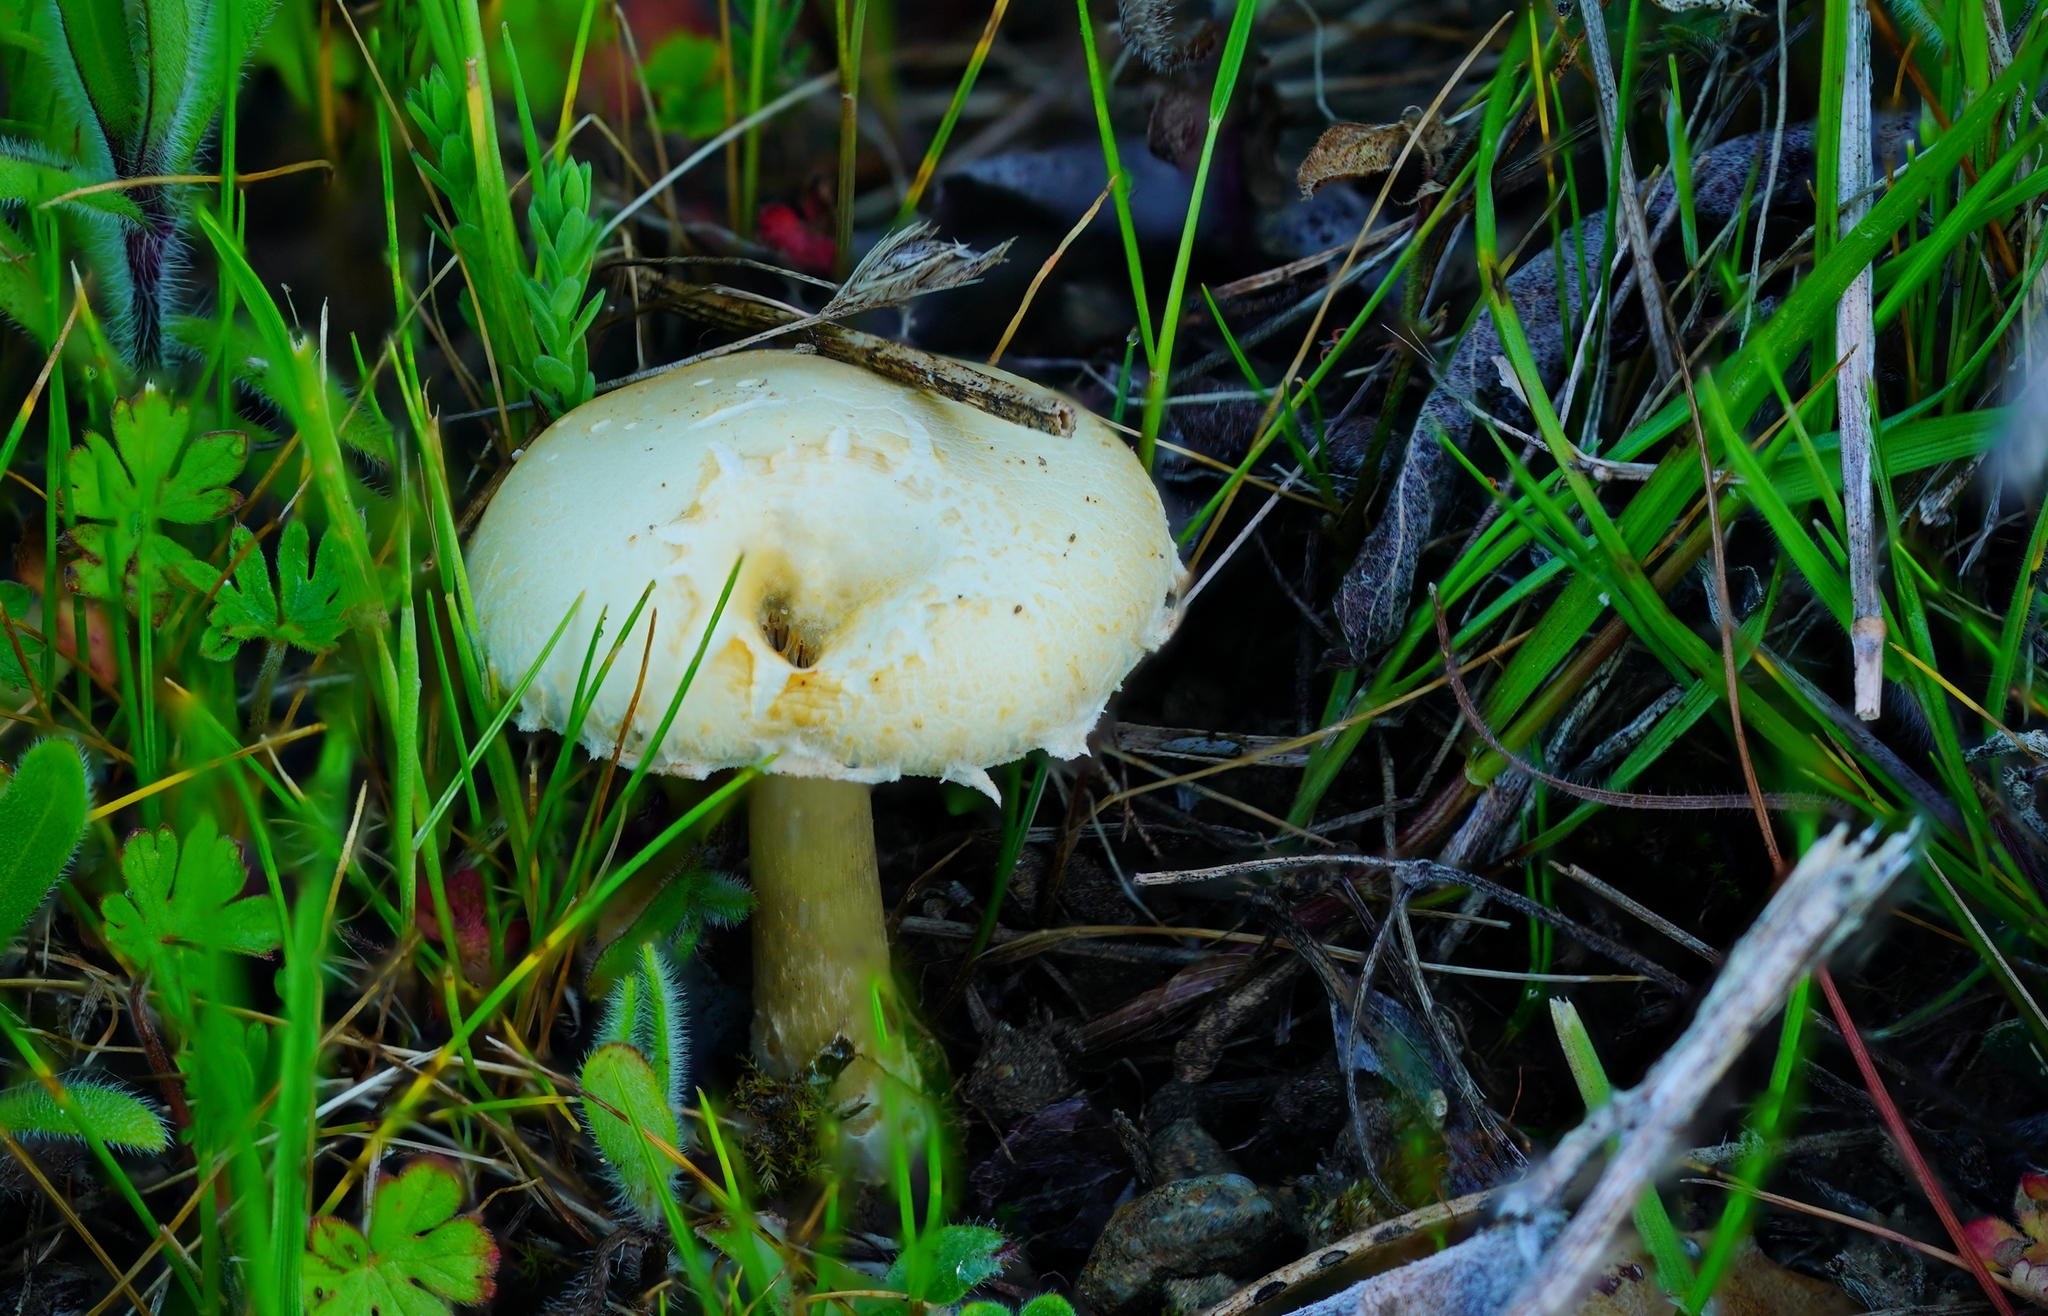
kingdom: Fungi
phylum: Basidiomycota
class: Agaricomycetes
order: Agaricales
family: Strophariaceae
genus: Leratiomyces
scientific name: Leratiomyces percevalii
